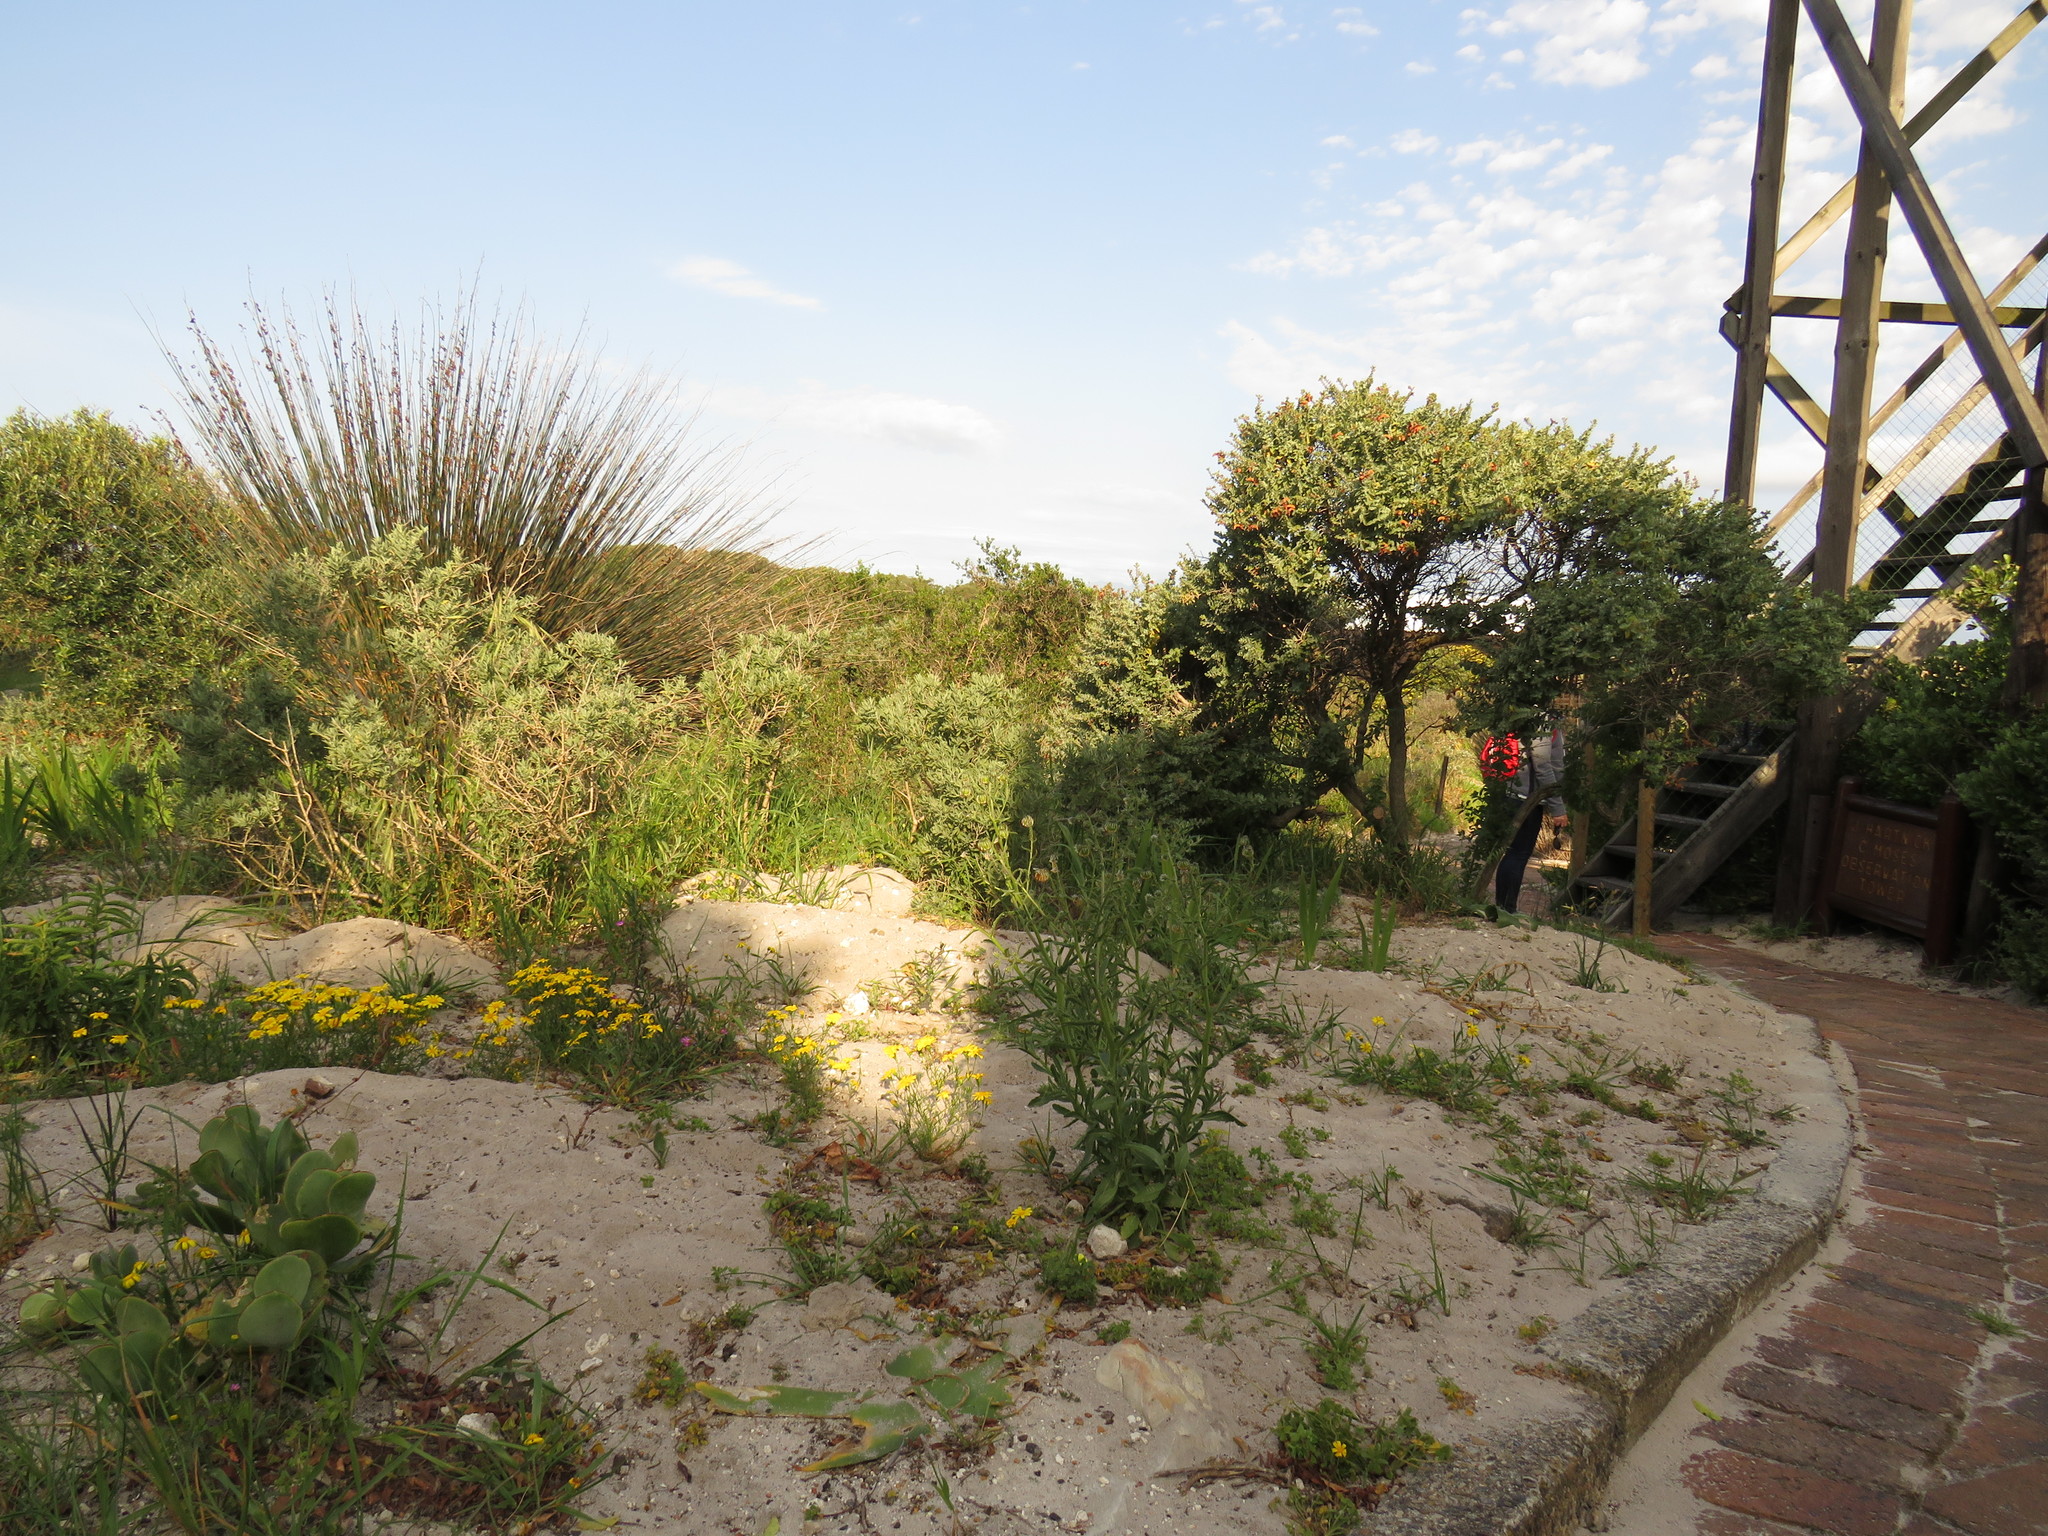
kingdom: Plantae
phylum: Tracheophyta
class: Magnoliopsida
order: Asterales
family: Asteraceae
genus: Steirodiscus
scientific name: Steirodiscus tagetes
